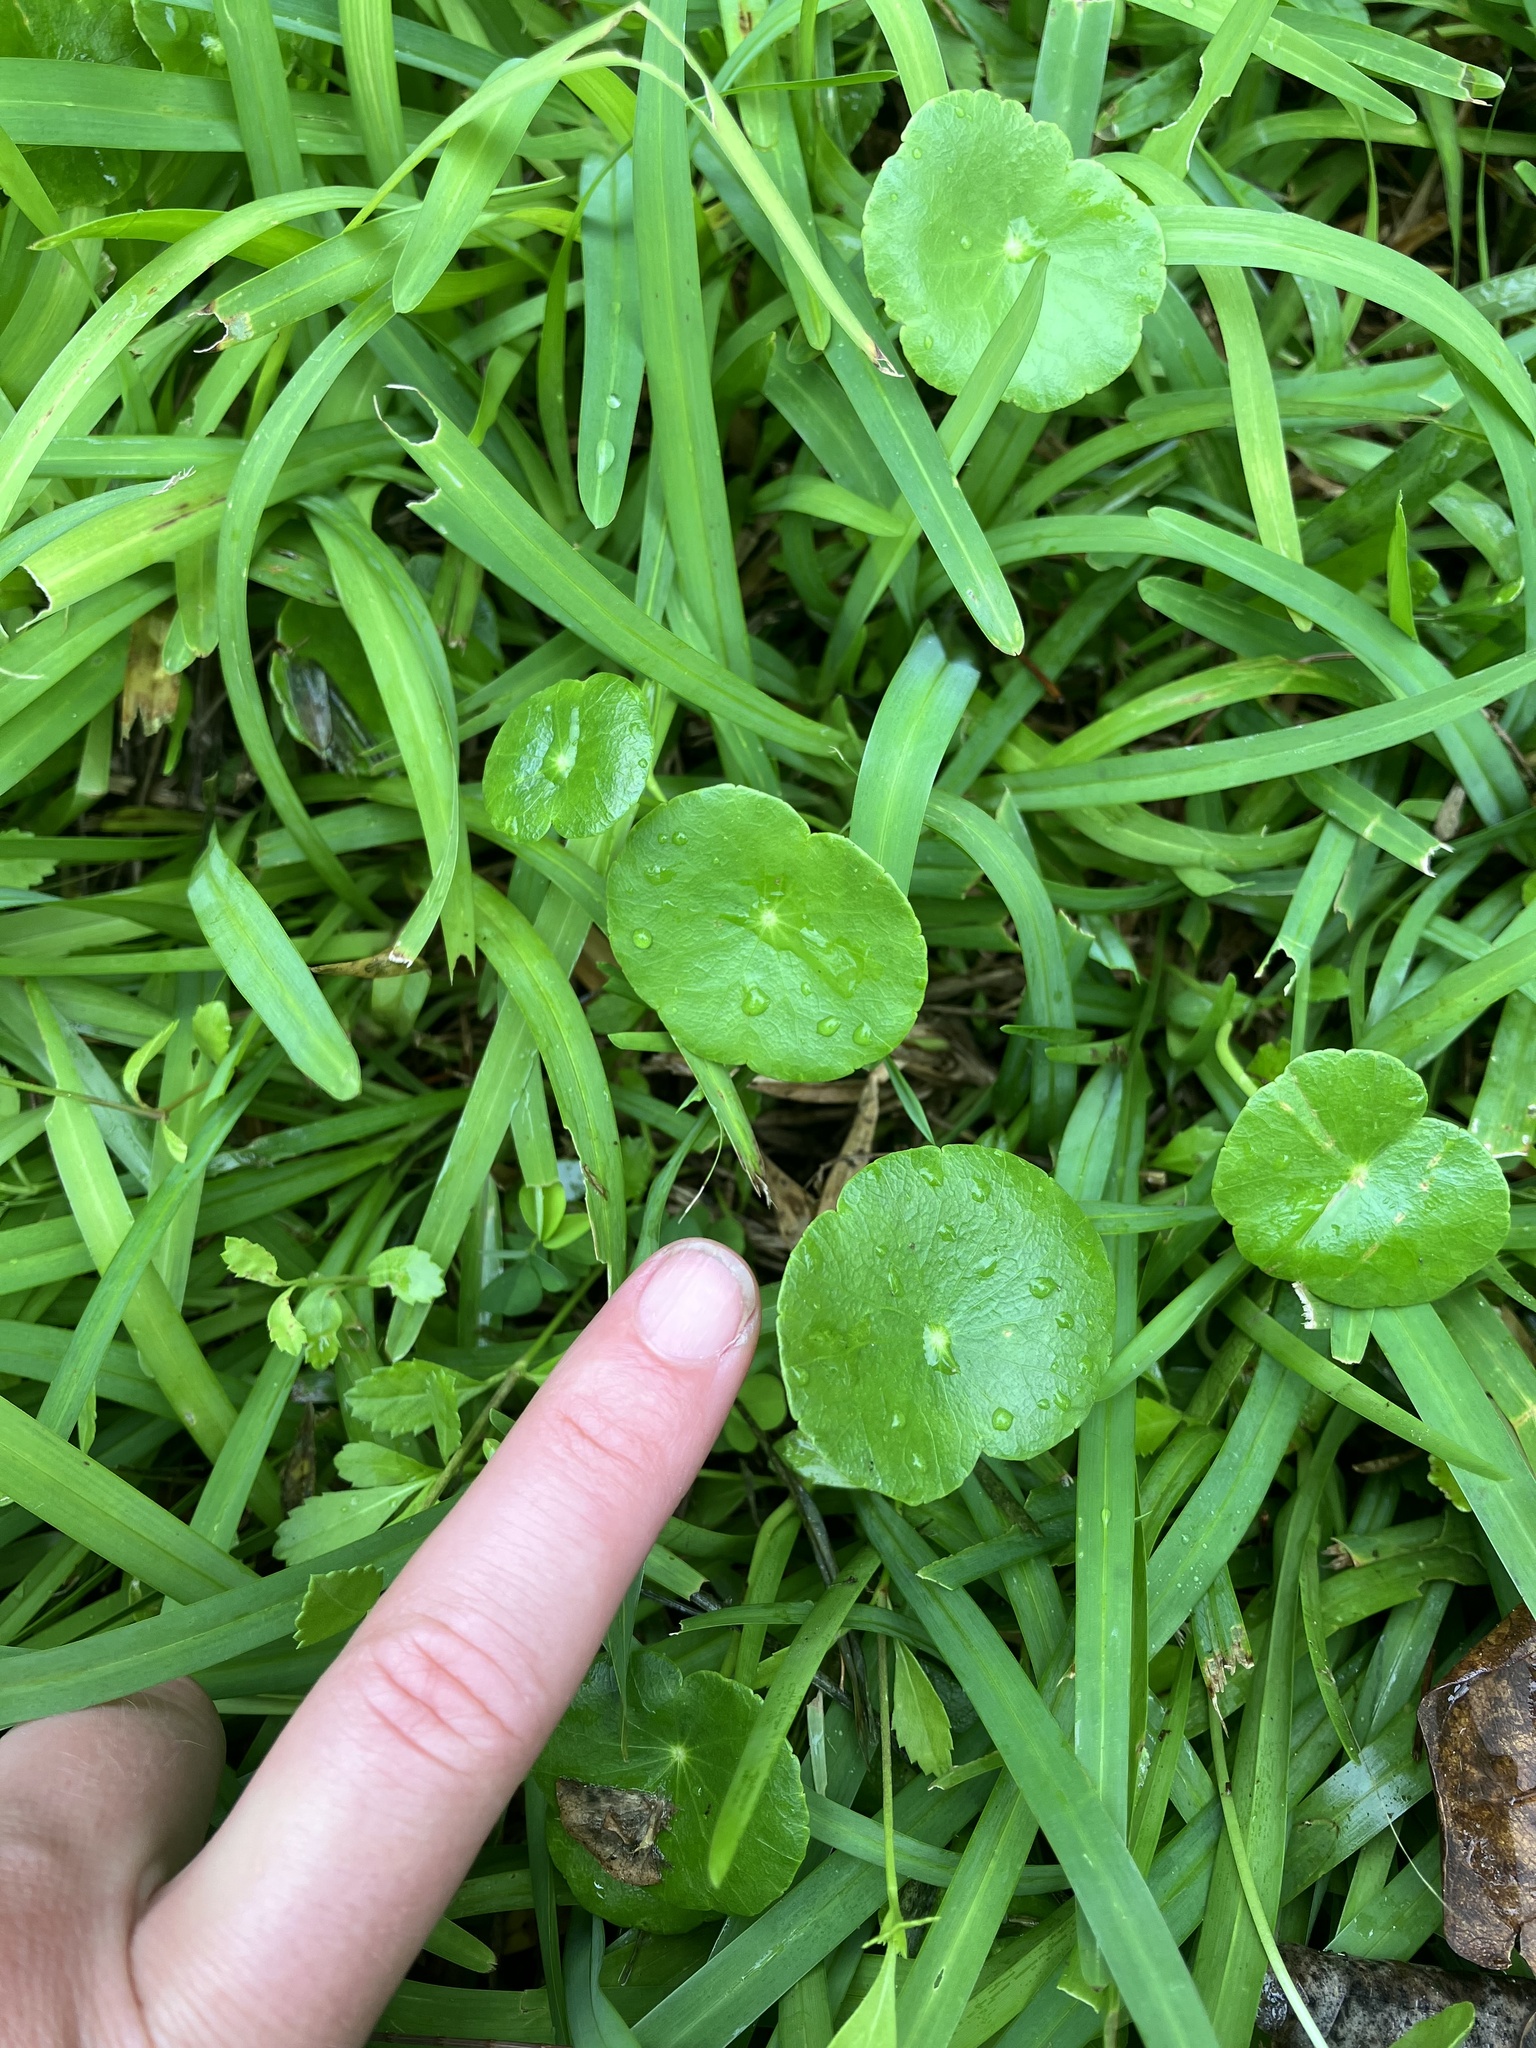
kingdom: Plantae
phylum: Tracheophyta
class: Magnoliopsida
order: Apiales
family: Araliaceae
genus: Hydrocotyle
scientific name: Hydrocotyle bonariensis
